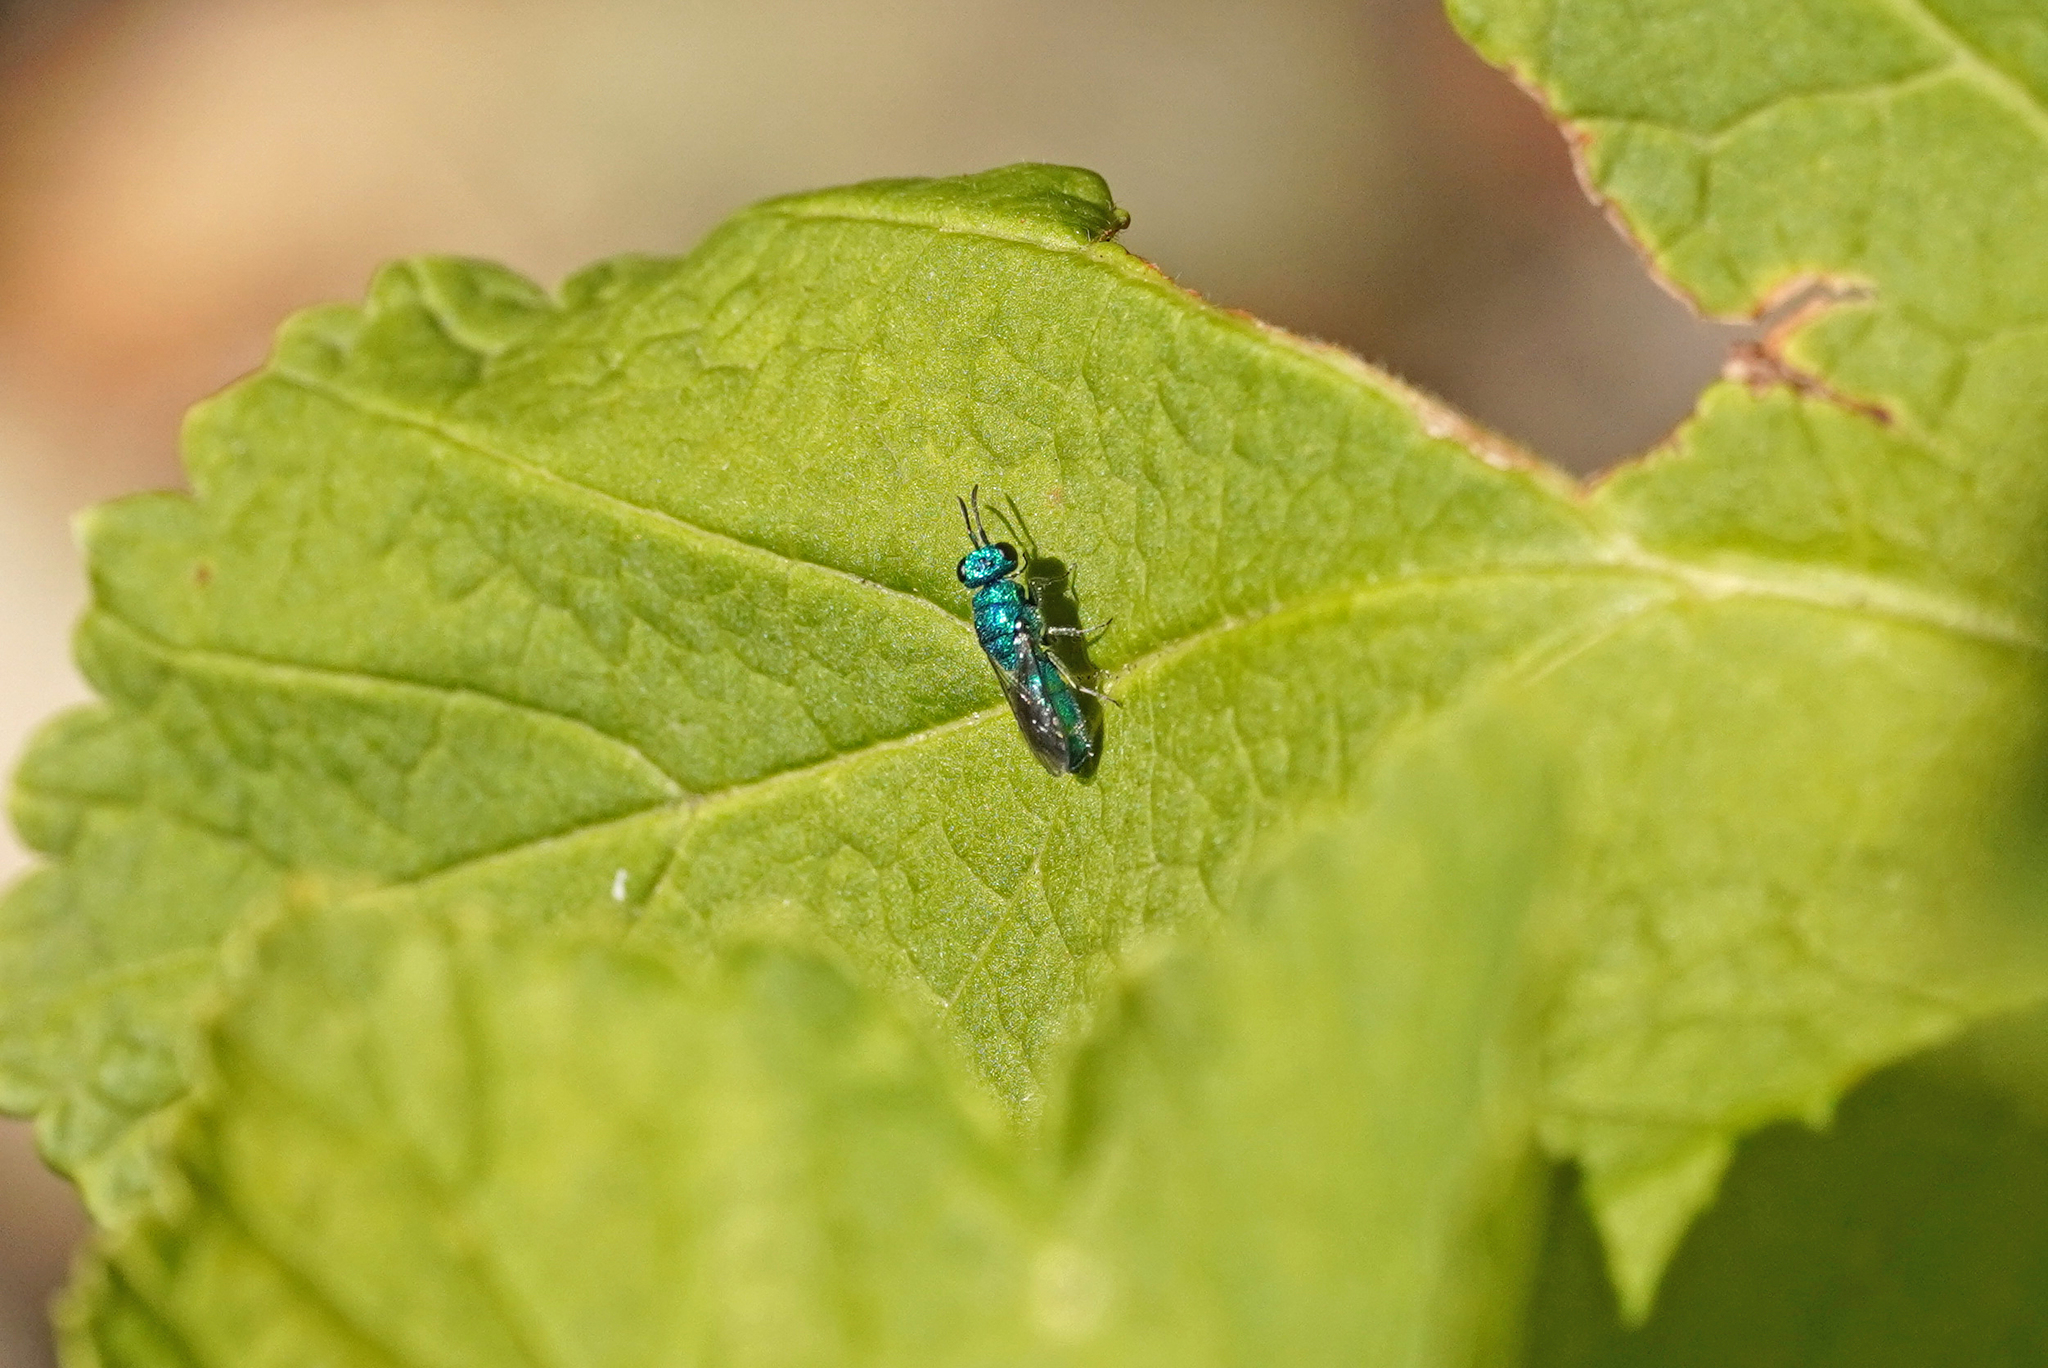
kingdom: Animalia
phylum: Arthropoda
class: Insecta
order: Hymenoptera
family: Pompilidae
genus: Pepsis
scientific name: Pepsis cyanea
